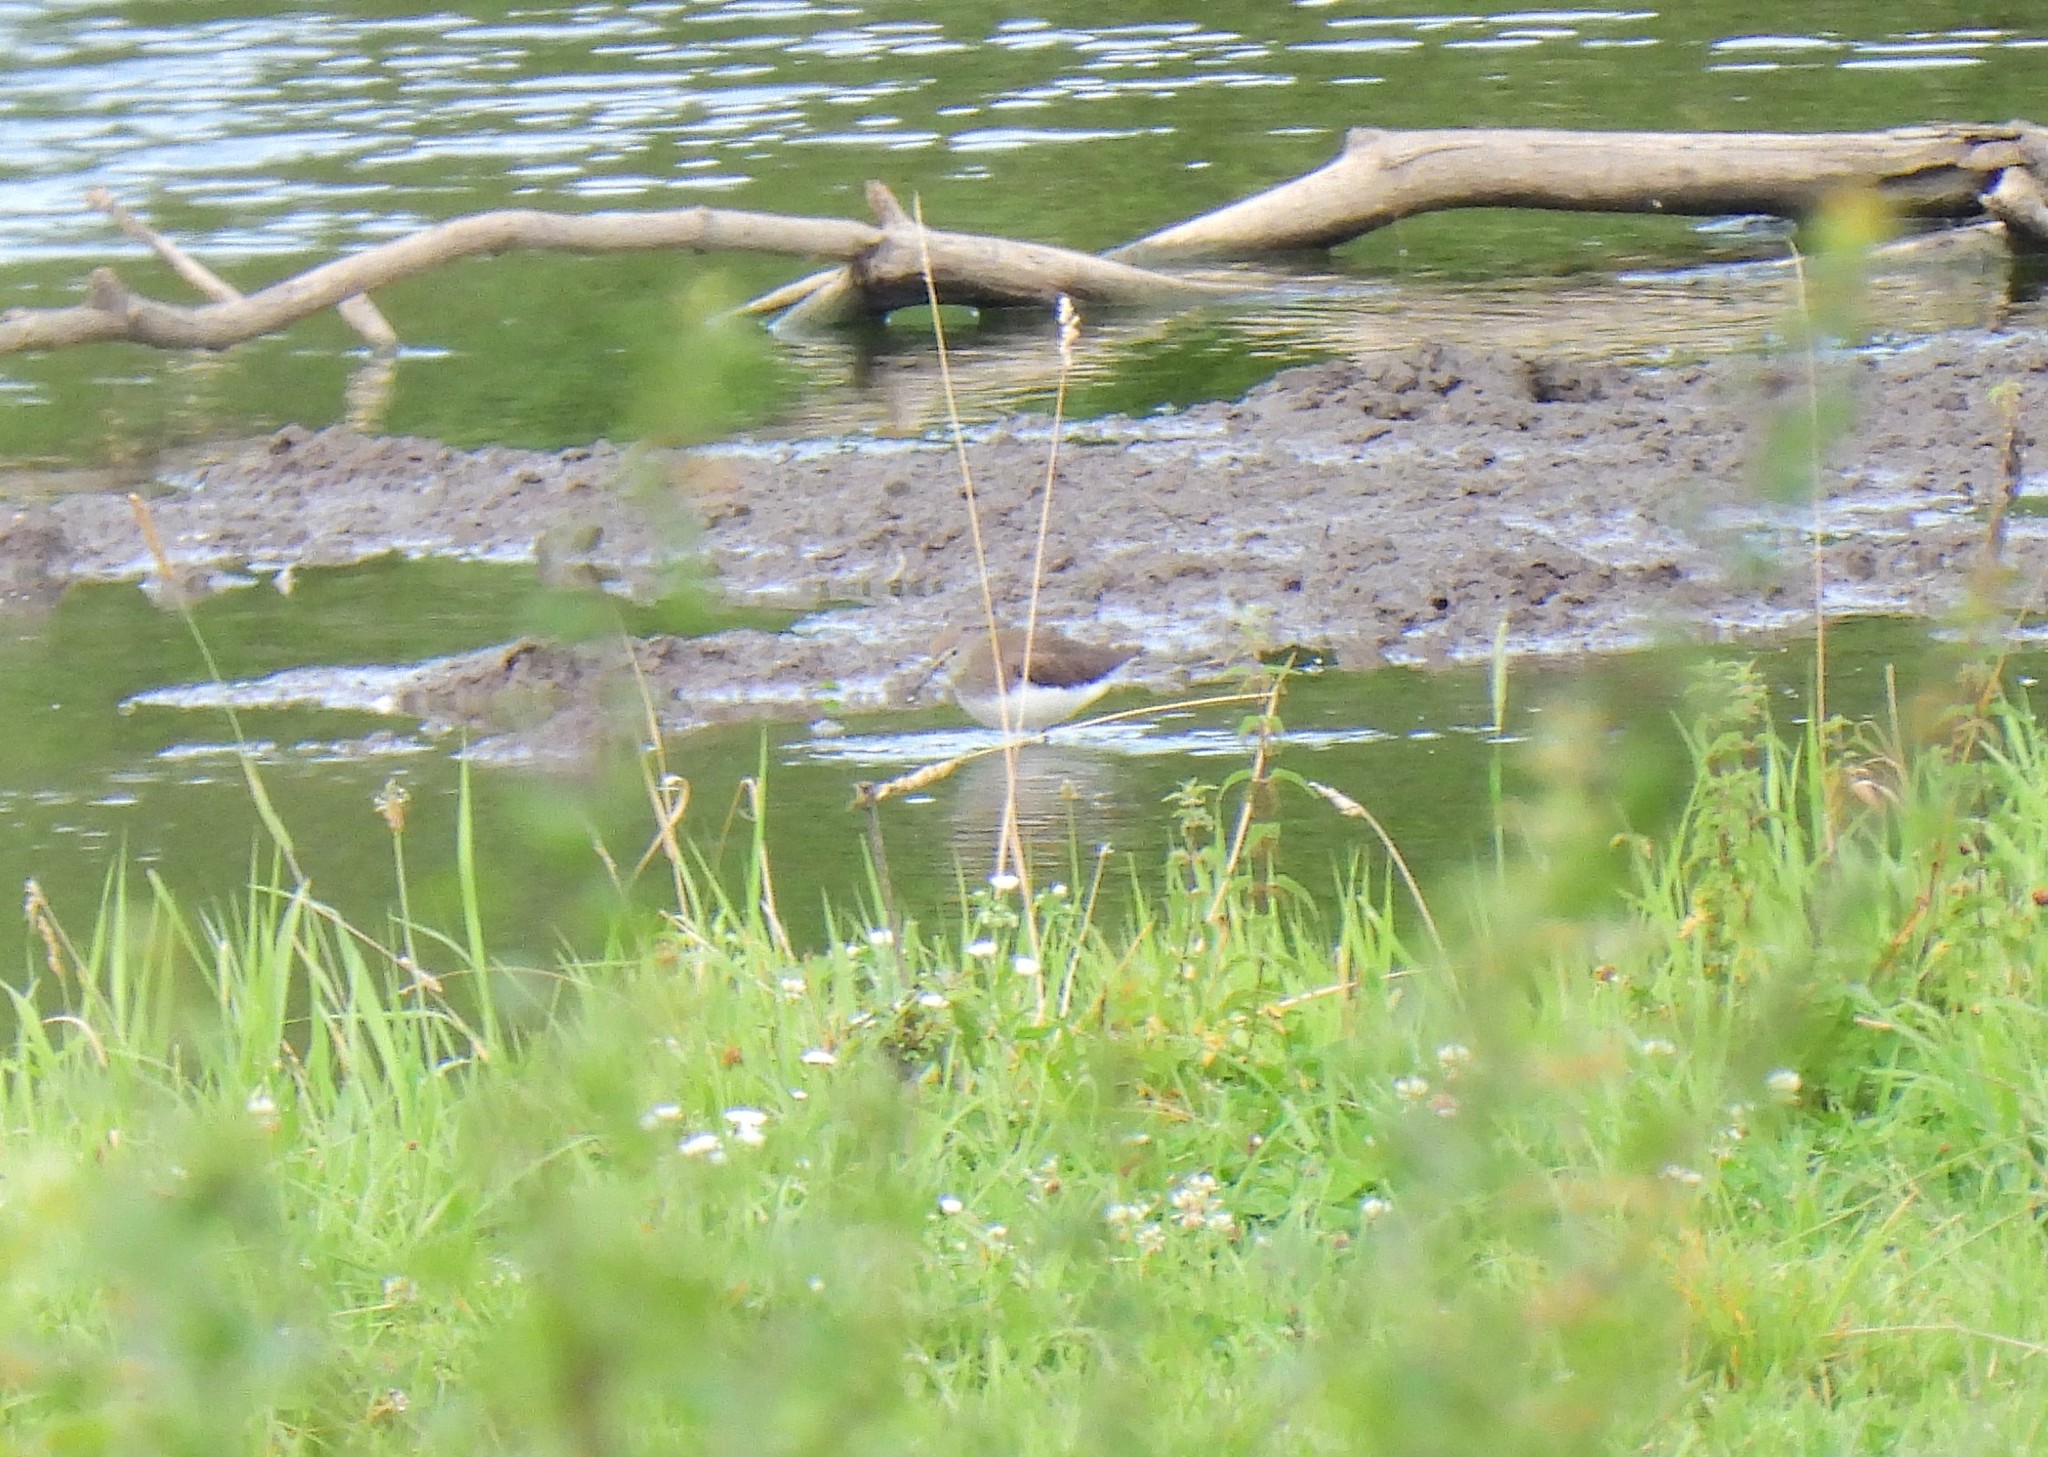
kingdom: Animalia
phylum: Chordata
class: Aves
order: Charadriiformes
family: Scolopacidae
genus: Tringa
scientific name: Tringa ochropus
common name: Green sandpiper
